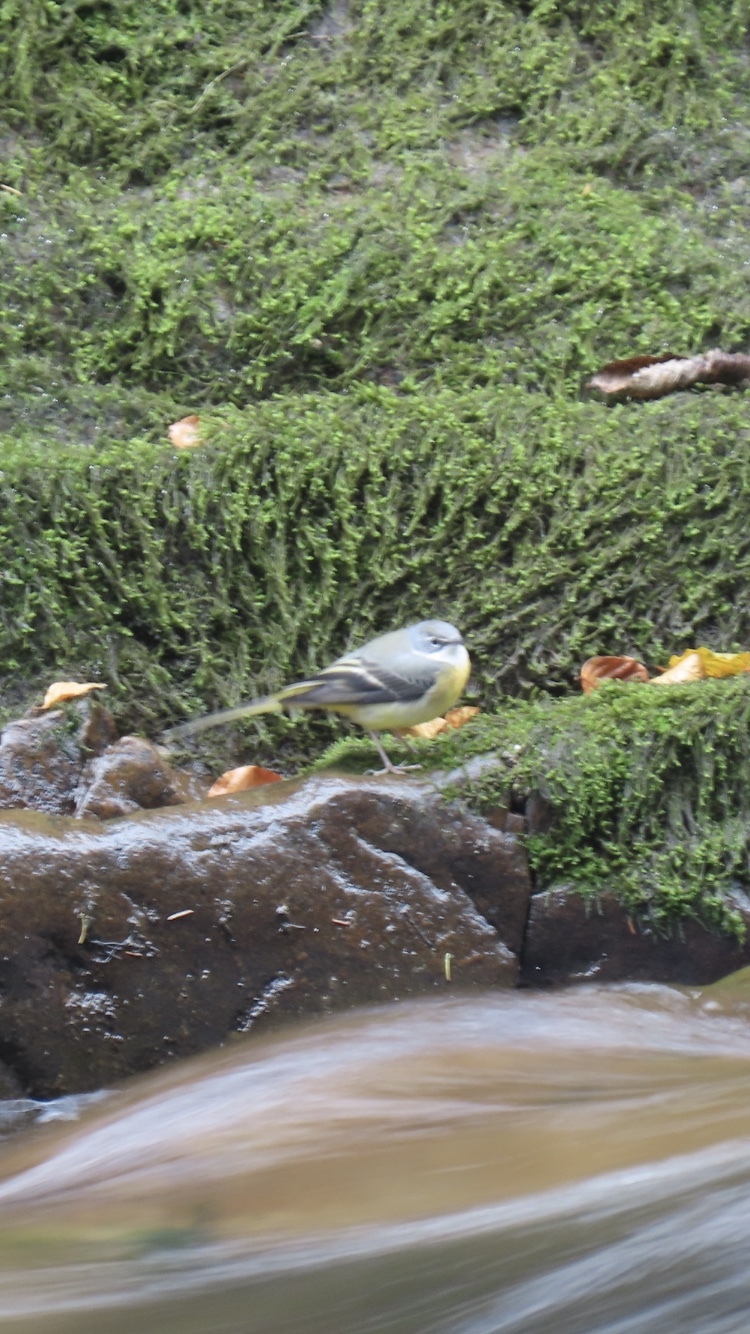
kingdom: Animalia
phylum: Chordata
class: Aves
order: Passeriformes
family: Motacillidae
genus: Motacilla
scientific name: Motacilla cinerea
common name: Grey wagtail
